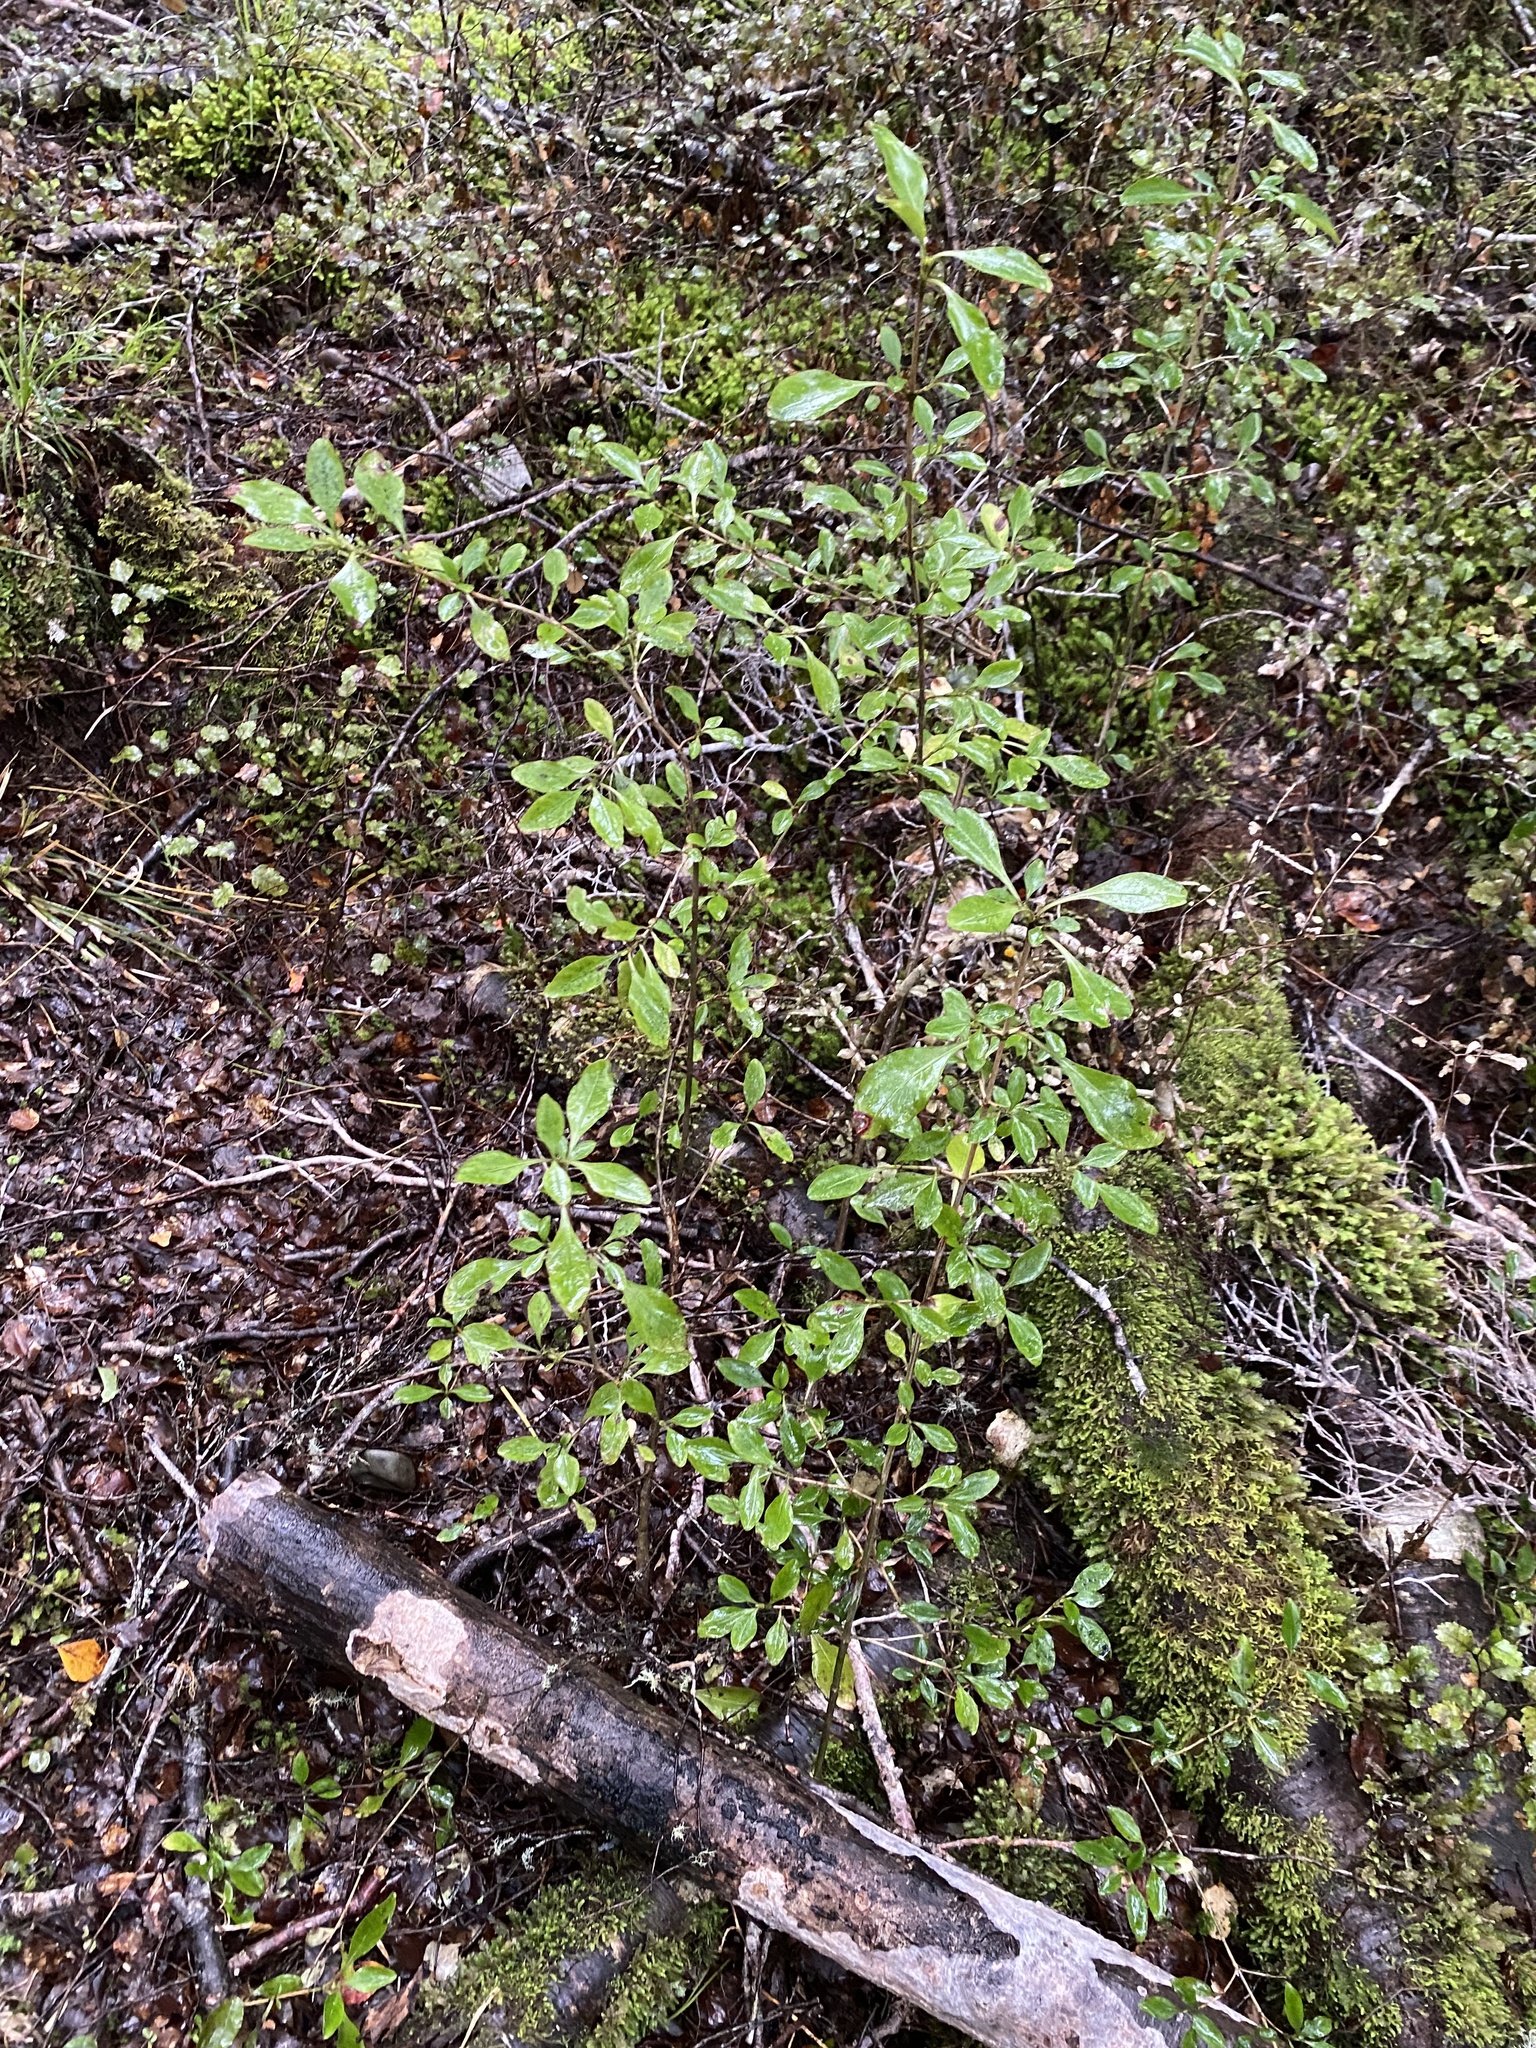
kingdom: Plantae
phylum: Tracheophyta
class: Magnoliopsida
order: Gentianales
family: Rubiaceae
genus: Coprosma
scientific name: Coprosma foetidissima
